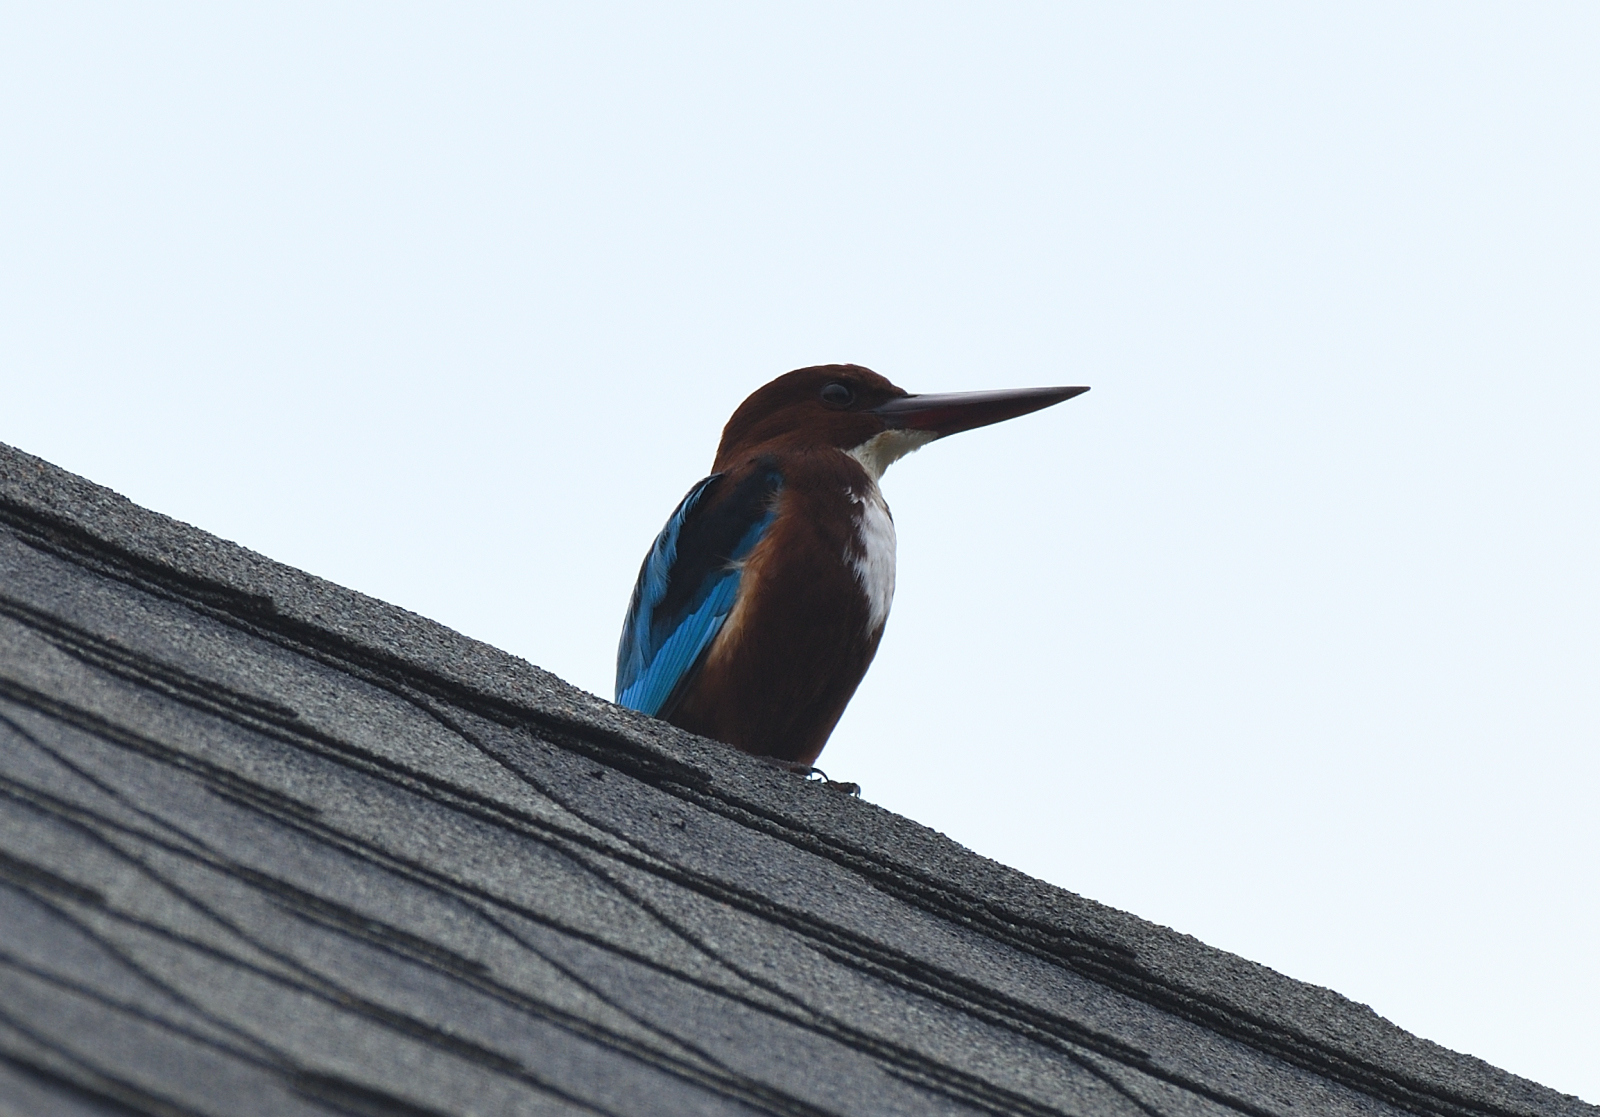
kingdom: Animalia
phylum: Chordata
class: Aves
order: Coraciiformes
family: Alcedinidae
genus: Halcyon
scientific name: Halcyon smyrnensis
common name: White-throated kingfisher
